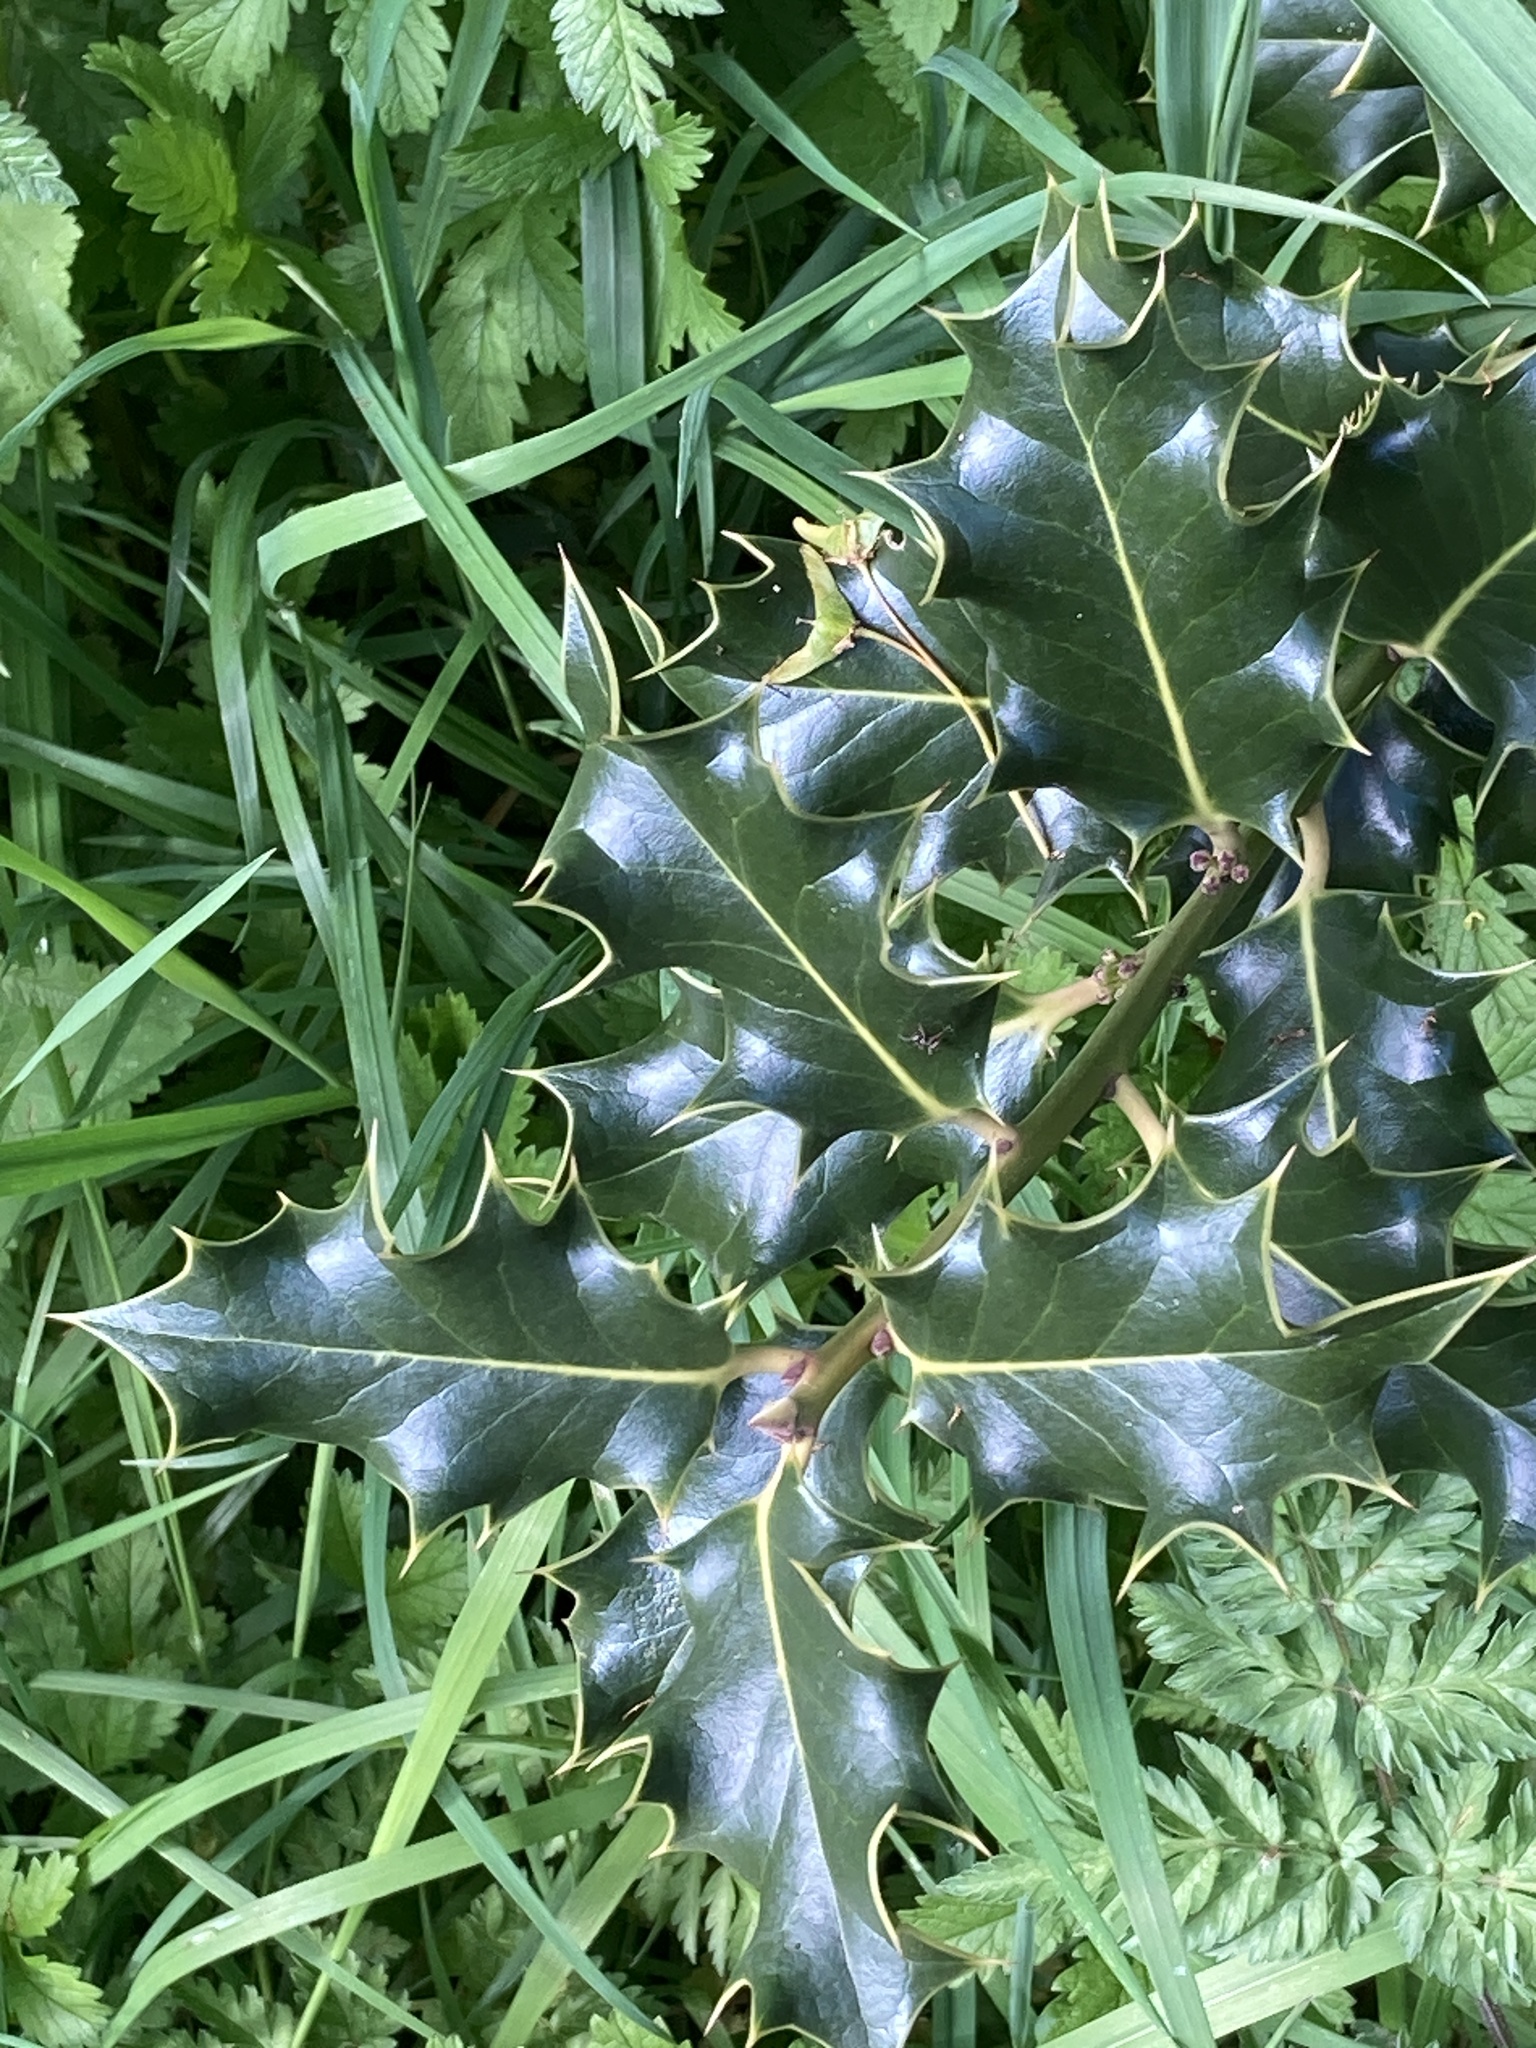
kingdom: Plantae
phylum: Tracheophyta
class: Magnoliopsida
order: Aquifoliales
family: Aquifoliaceae
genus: Ilex
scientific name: Ilex aquifolium
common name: English holly
